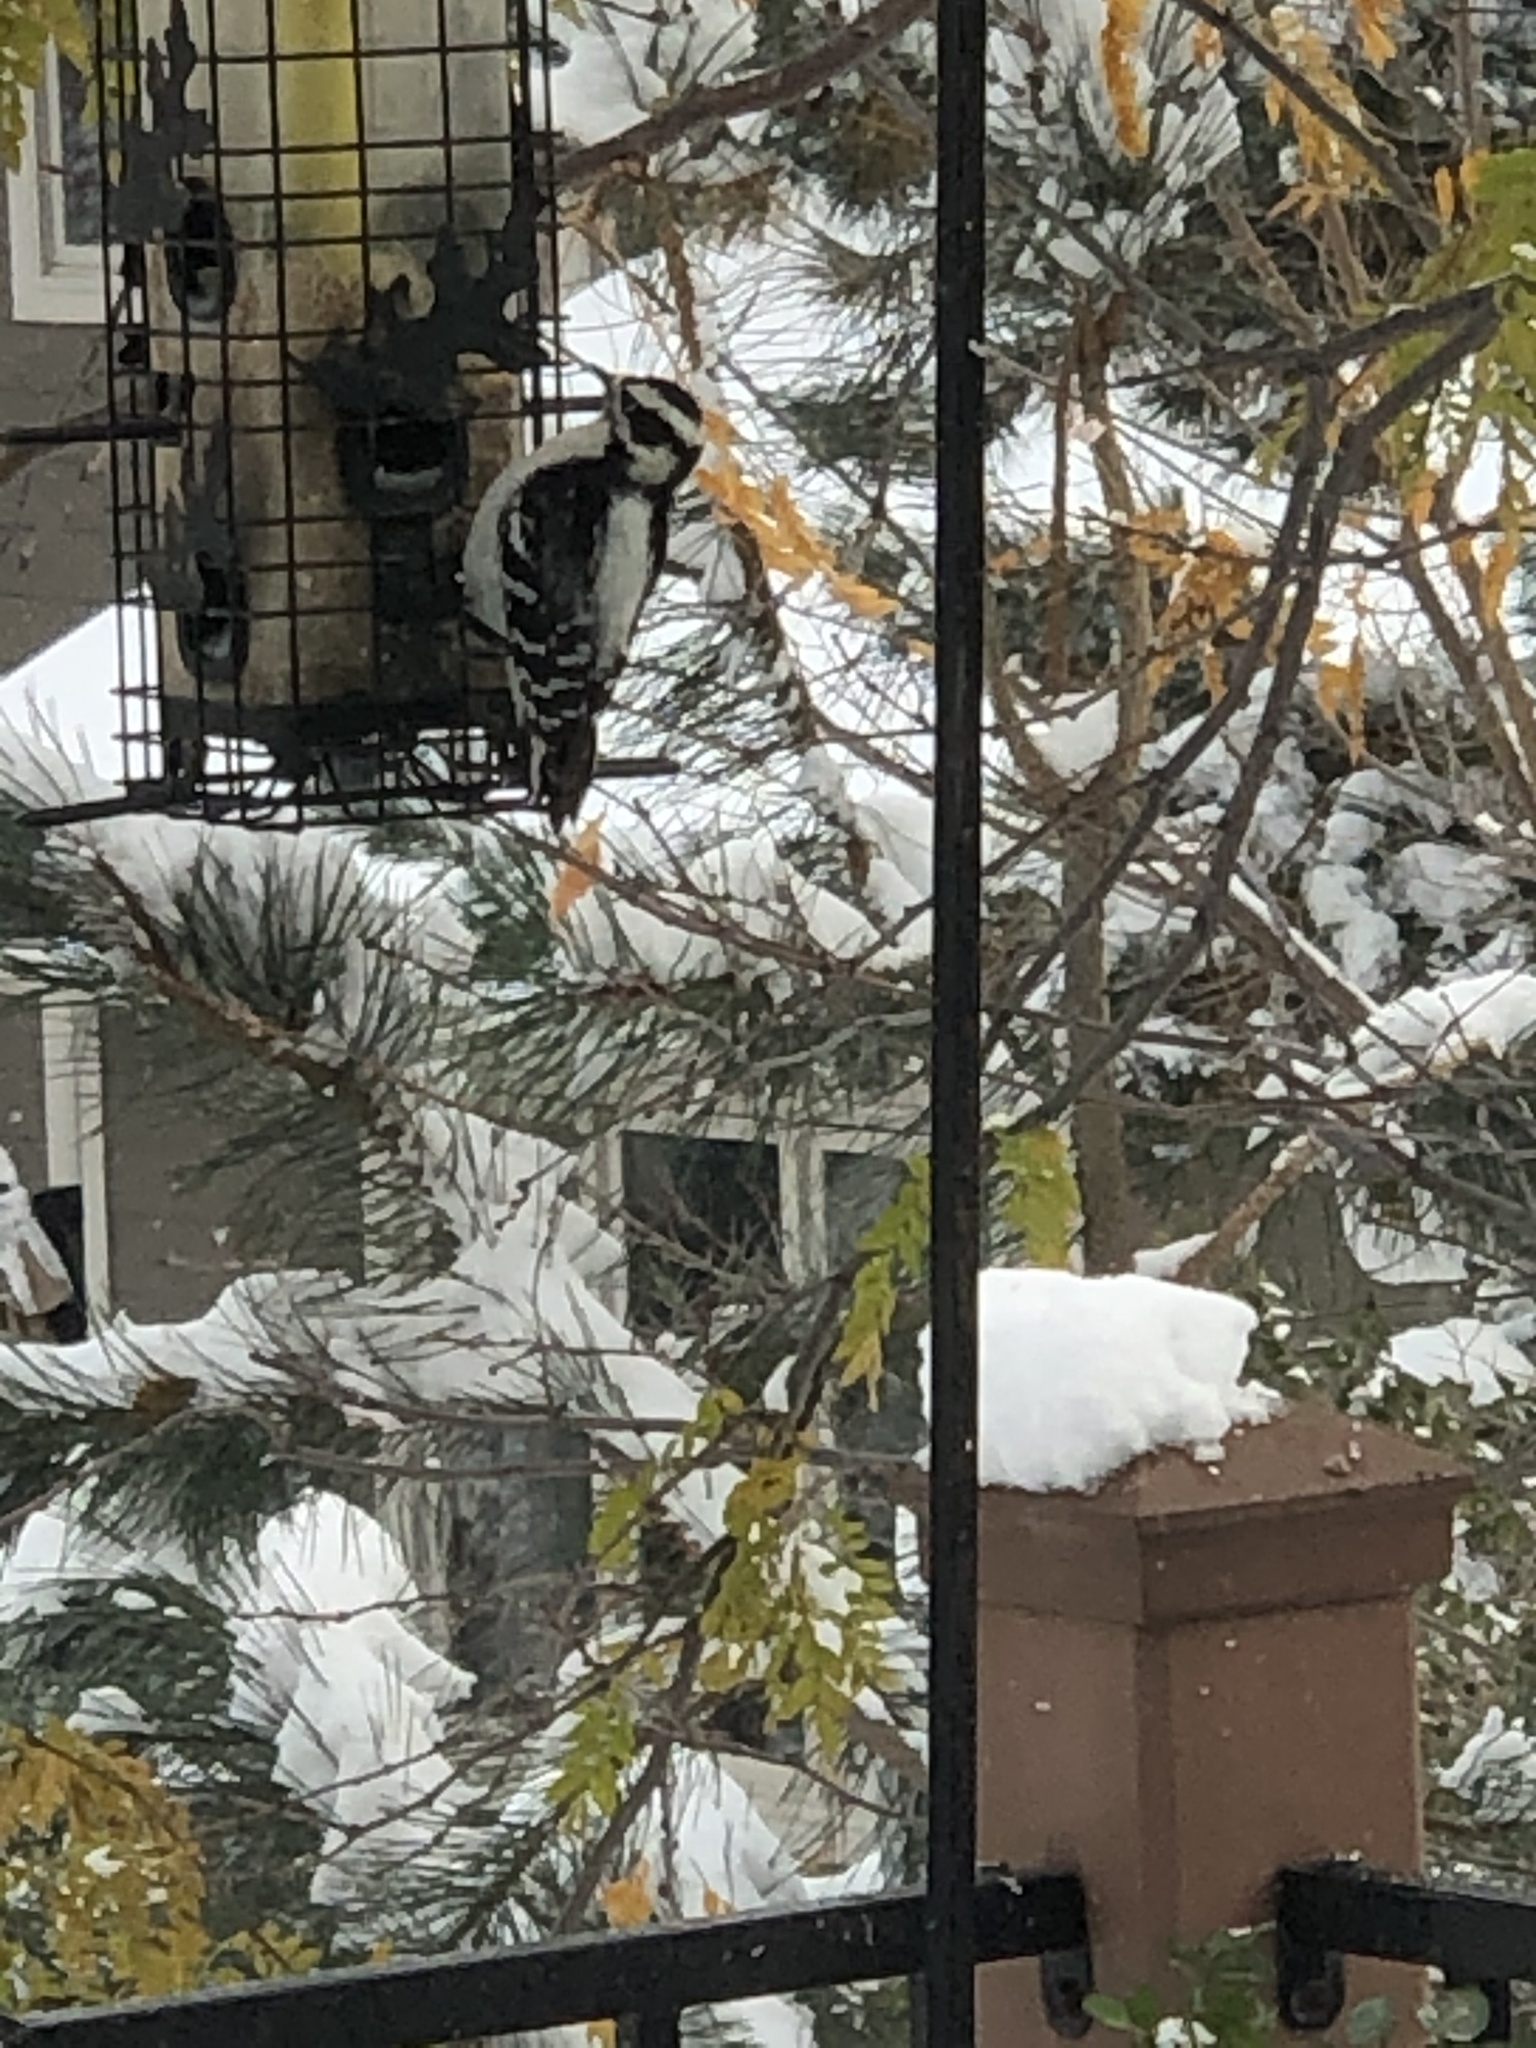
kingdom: Animalia
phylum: Chordata
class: Aves
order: Piciformes
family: Picidae
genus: Dryobates
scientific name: Dryobates pubescens
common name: Downy woodpecker
